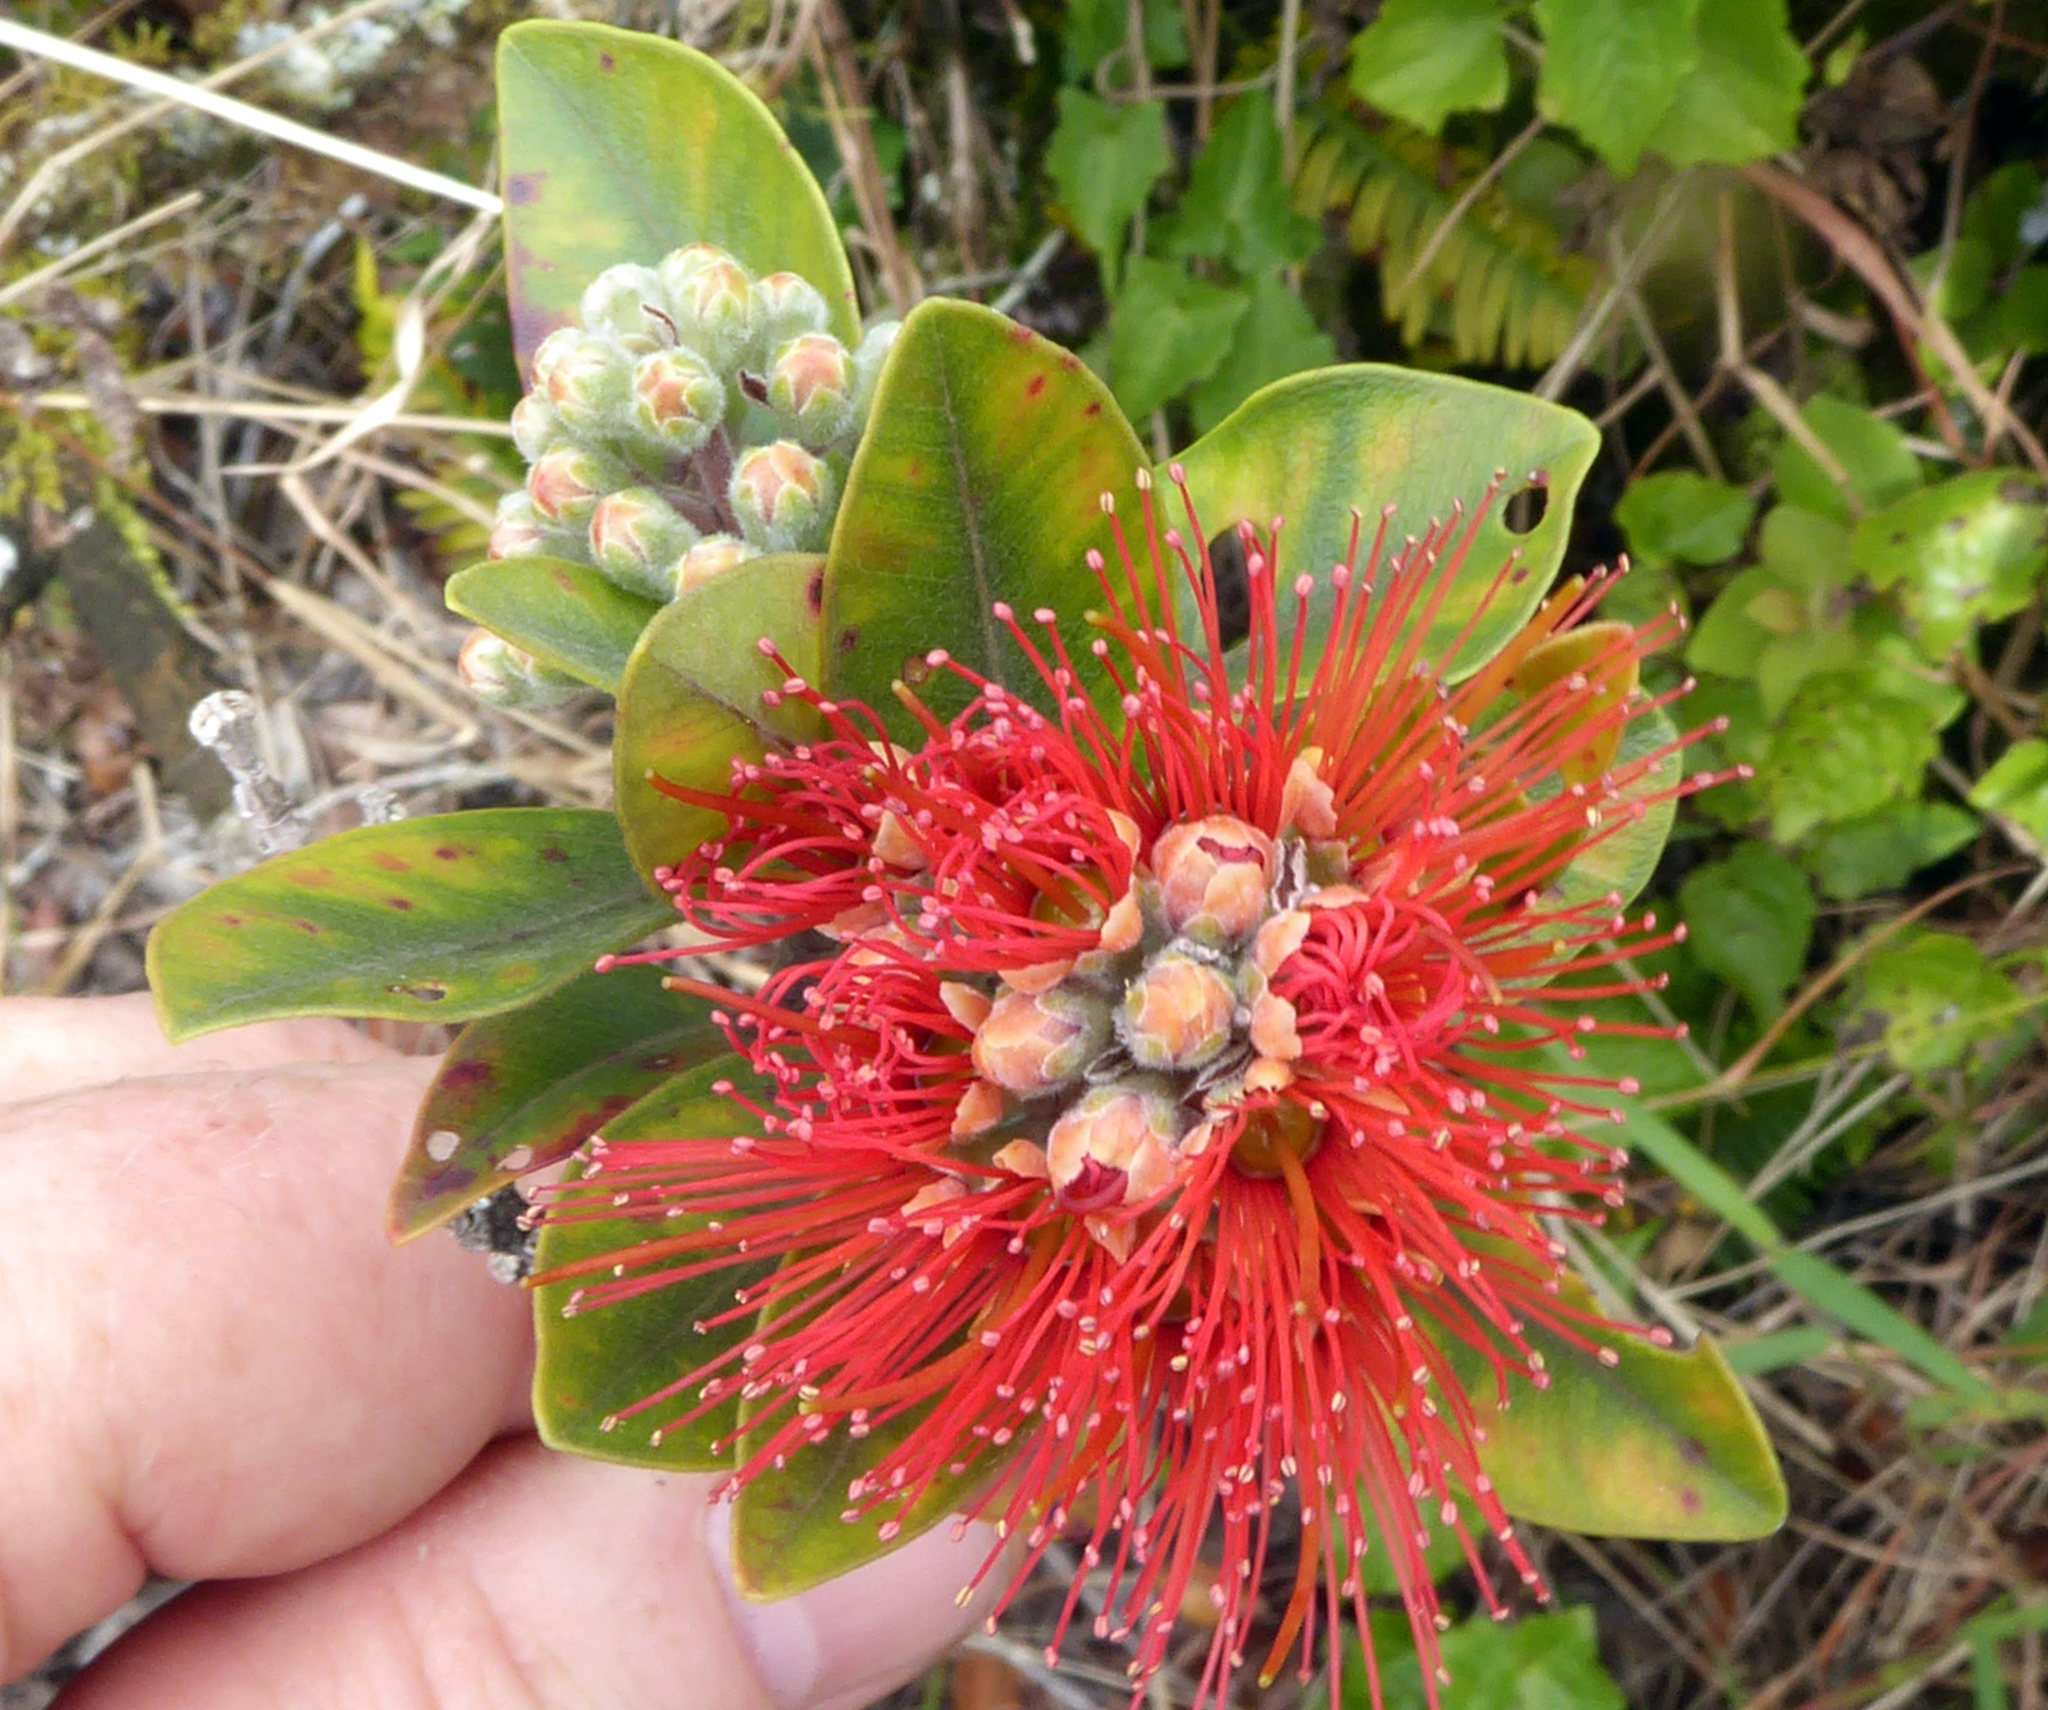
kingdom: Plantae
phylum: Tracheophyta
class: Magnoliopsida
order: Myrtales
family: Myrtaceae
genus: Metrosideros
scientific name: Metrosideros collina
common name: Vunga
